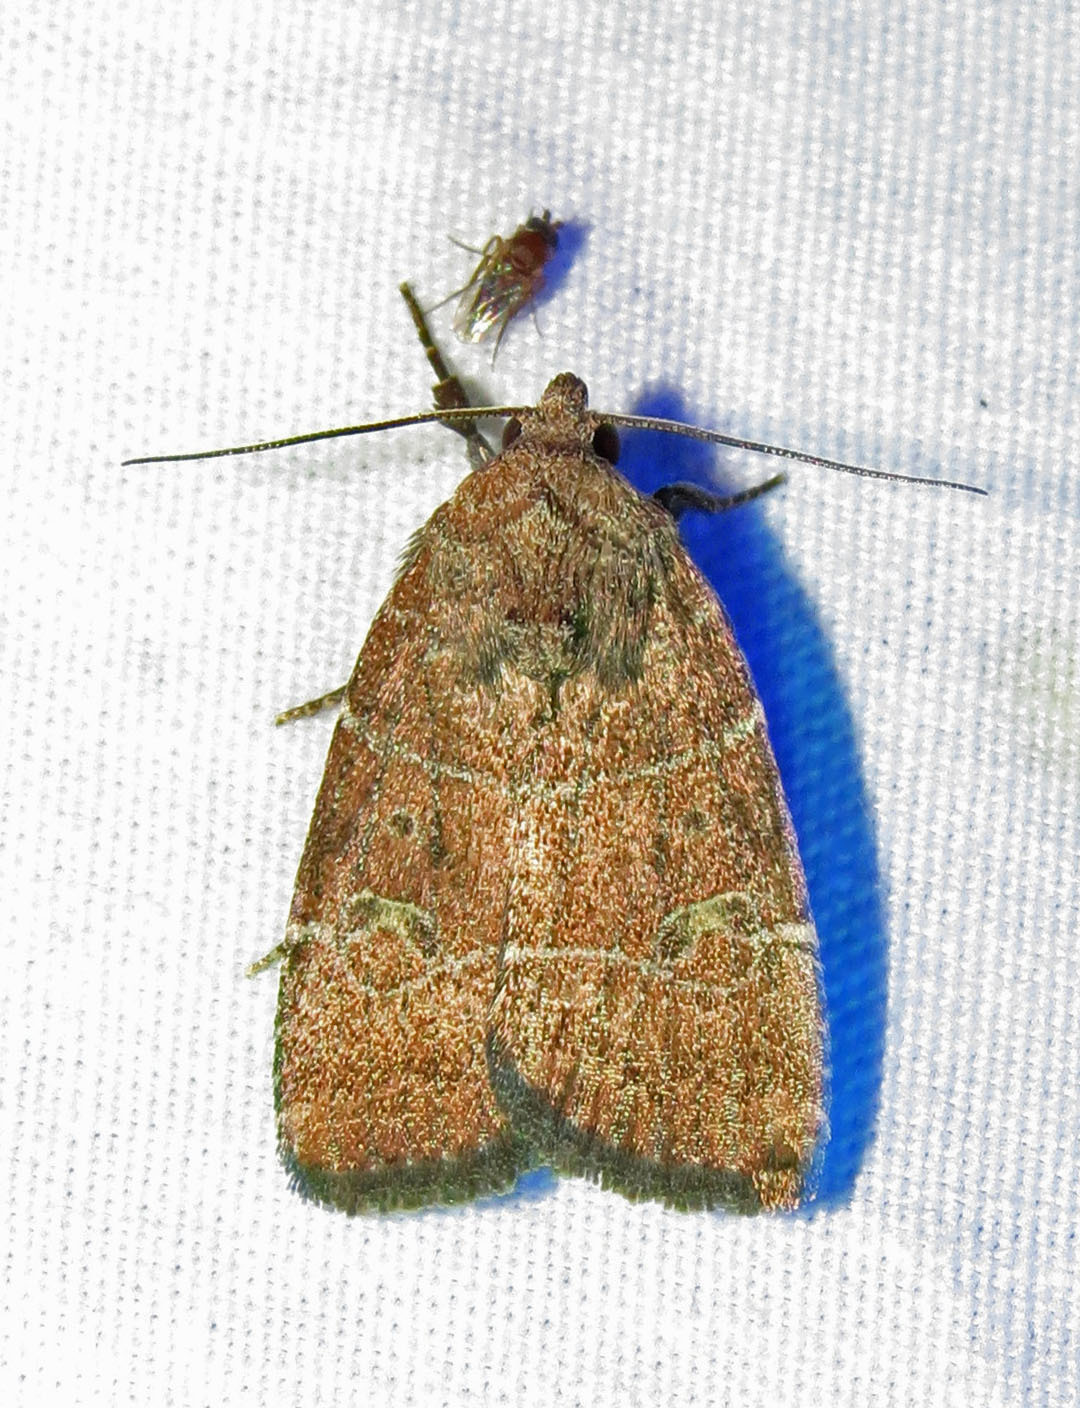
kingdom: Animalia
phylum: Arthropoda
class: Insecta
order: Lepidoptera
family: Noctuidae
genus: Elaphria
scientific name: Elaphria grata
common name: Grateful midget moth
